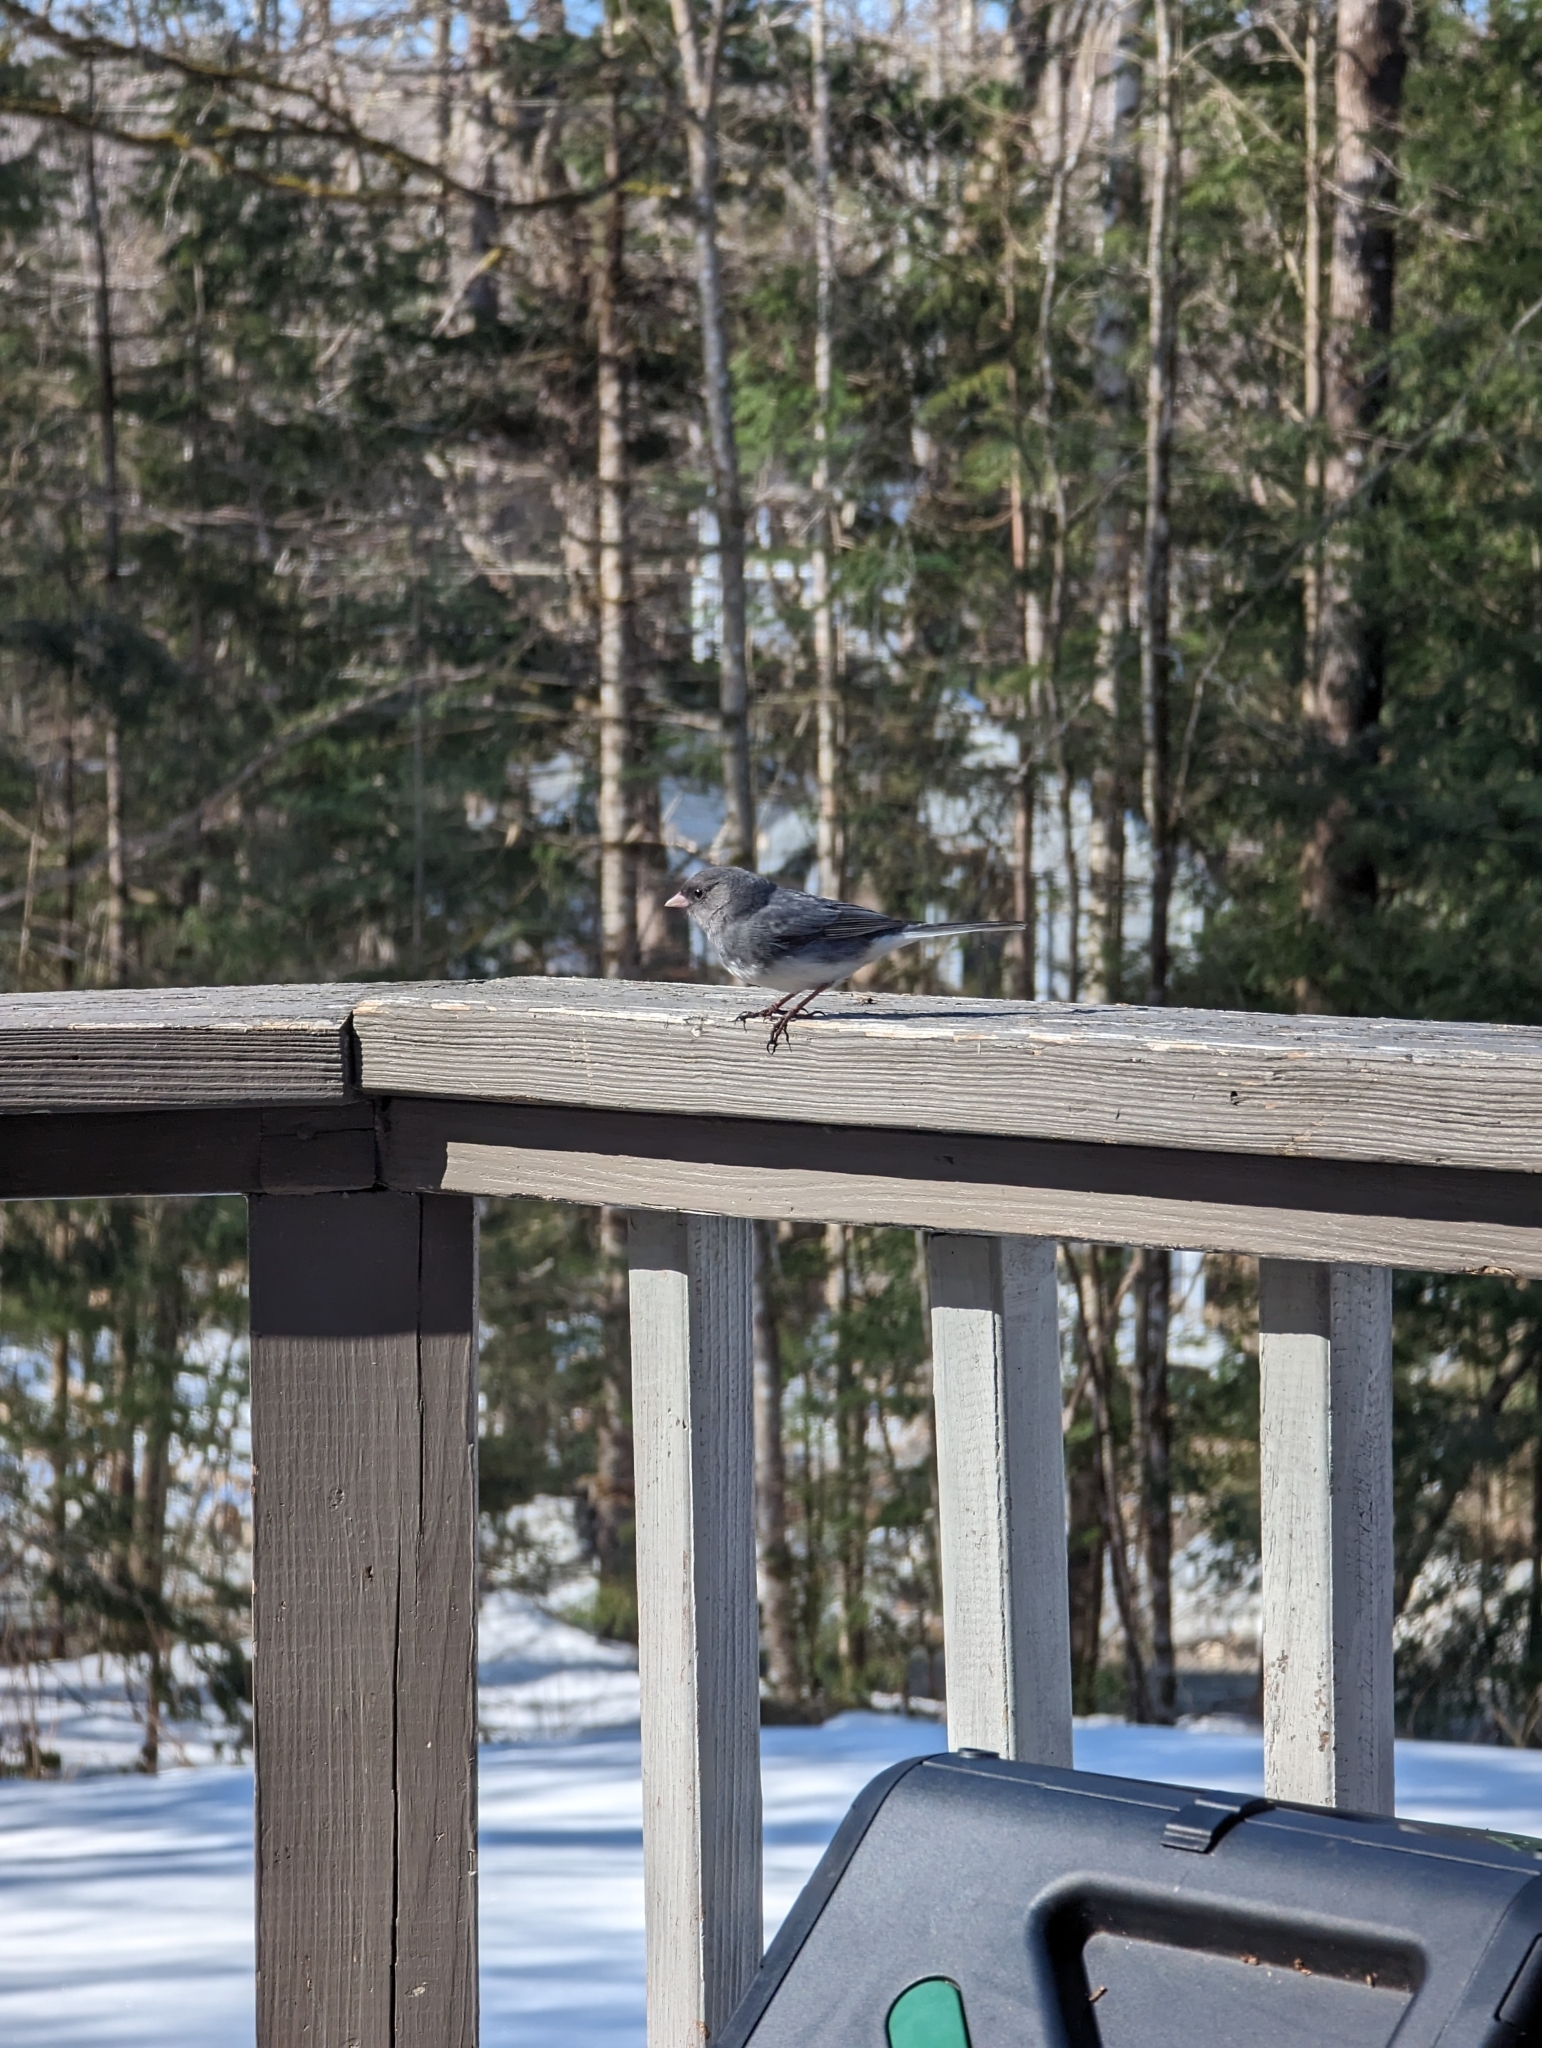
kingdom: Animalia
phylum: Chordata
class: Aves
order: Passeriformes
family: Passerellidae
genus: Junco
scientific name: Junco hyemalis
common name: Dark-eyed junco
